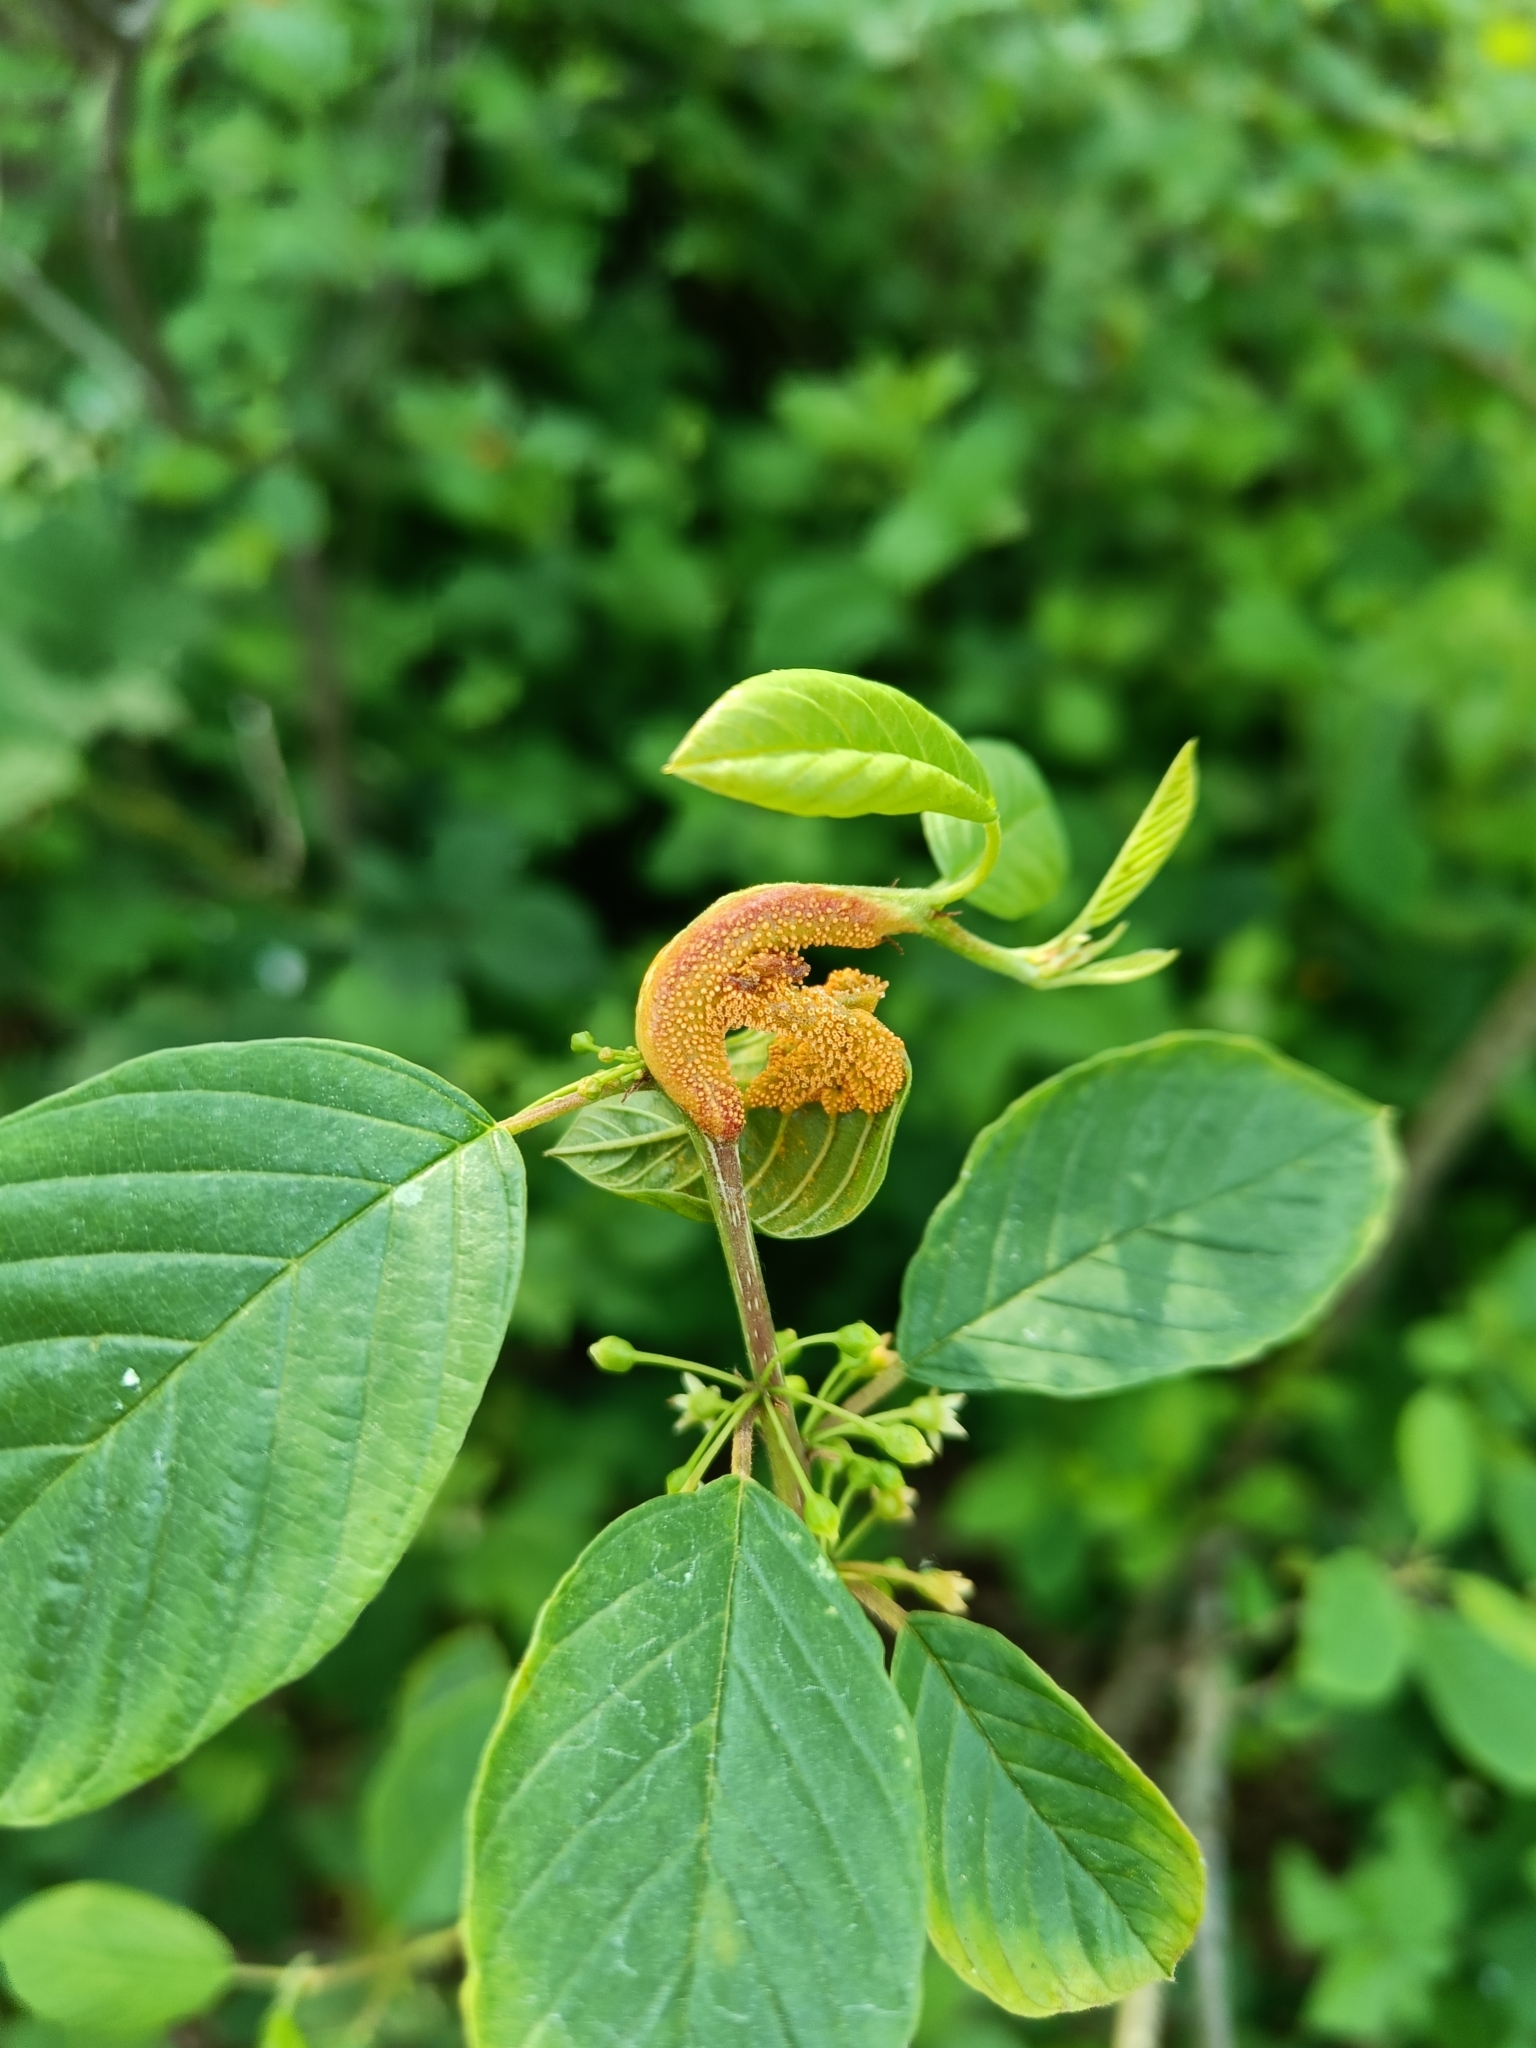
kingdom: Fungi
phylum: Basidiomycota
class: Pucciniomycetes
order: Pucciniales
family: Pucciniaceae
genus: Puccinia
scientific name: Puccinia coronata
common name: Crown rust
